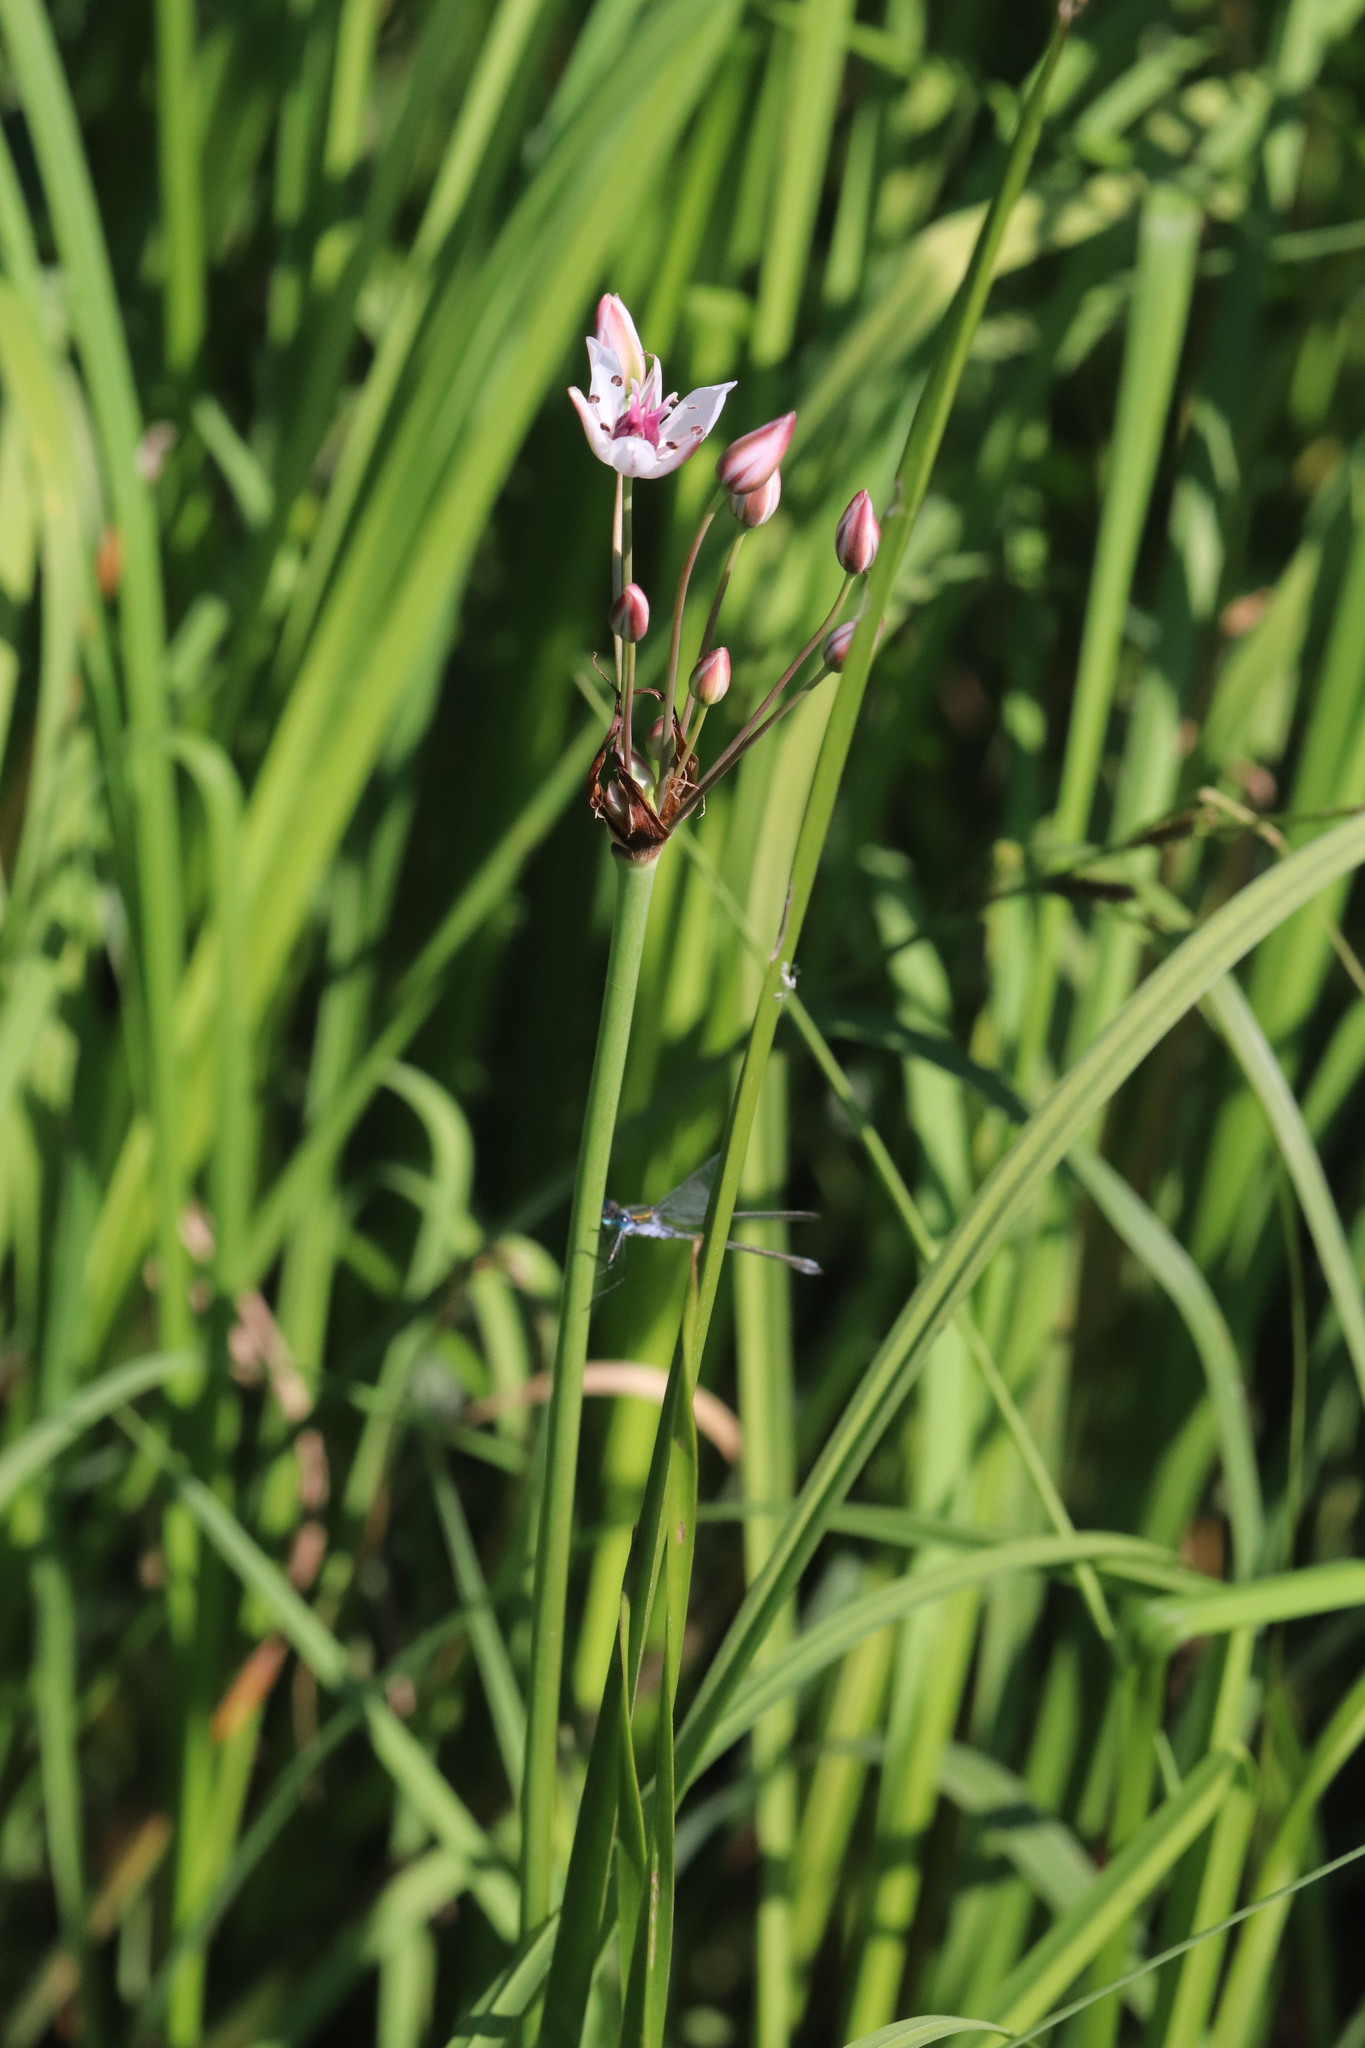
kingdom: Plantae
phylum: Tracheophyta
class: Liliopsida
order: Alismatales
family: Butomaceae
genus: Butomus
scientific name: Butomus umbellatus
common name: Flowering-rush
